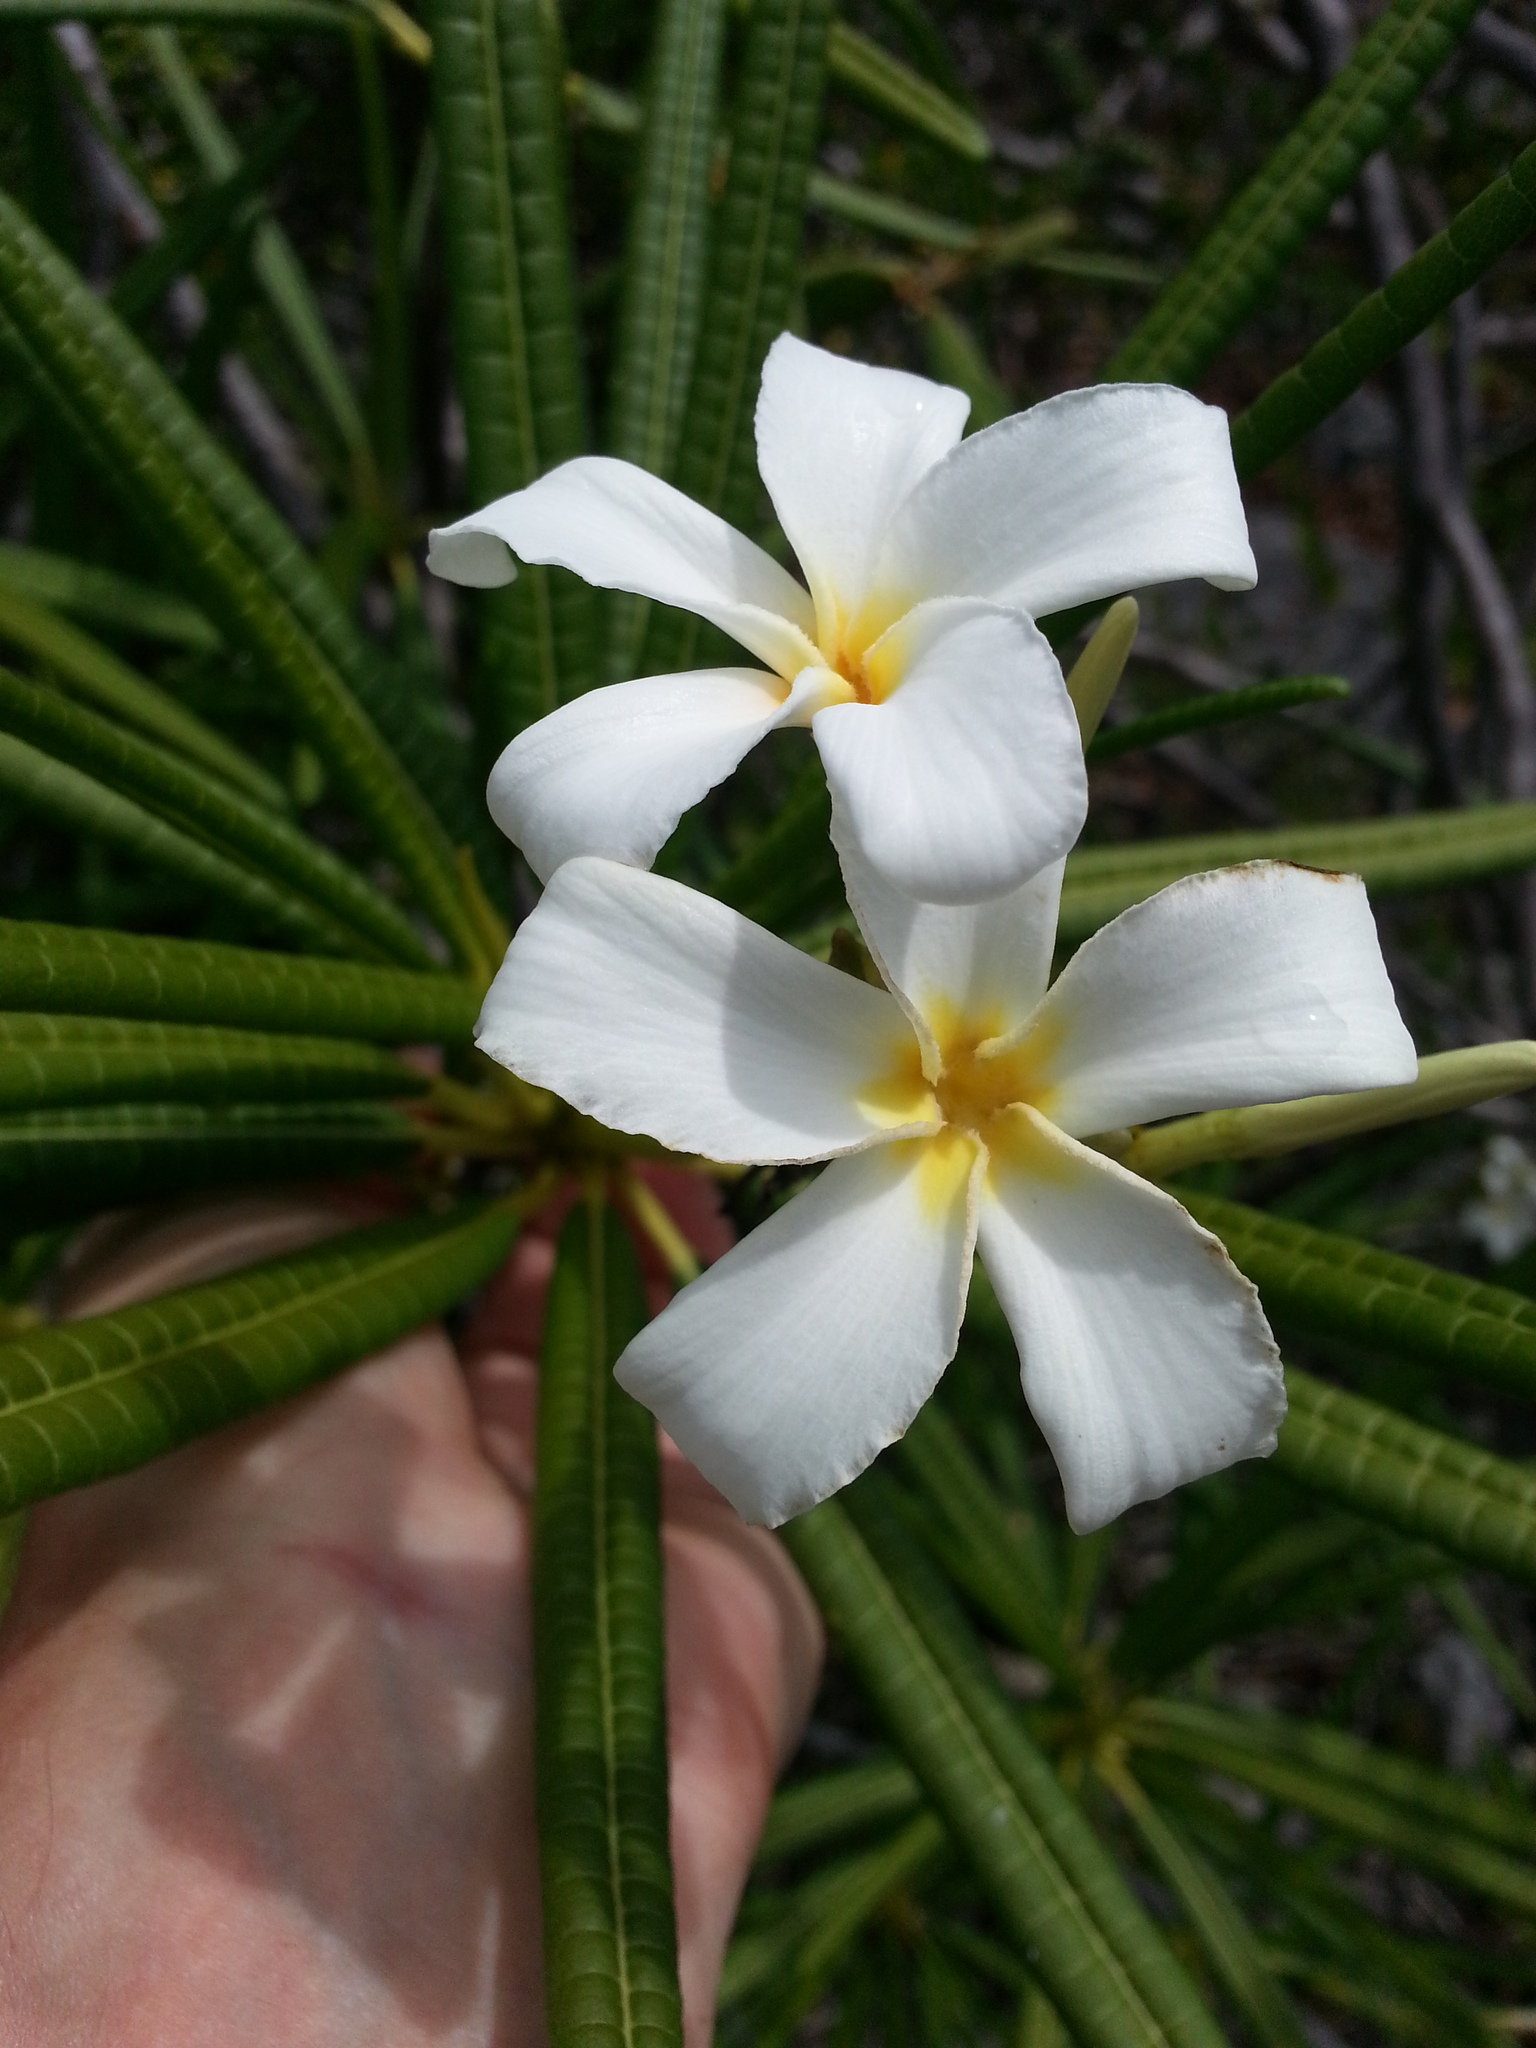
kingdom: Plantae
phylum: Tracheophyta
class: Magnoliopsida
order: Gentianales
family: Apocynaceae
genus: Plumeria
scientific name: Plumeria alba
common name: Wild frangipani
